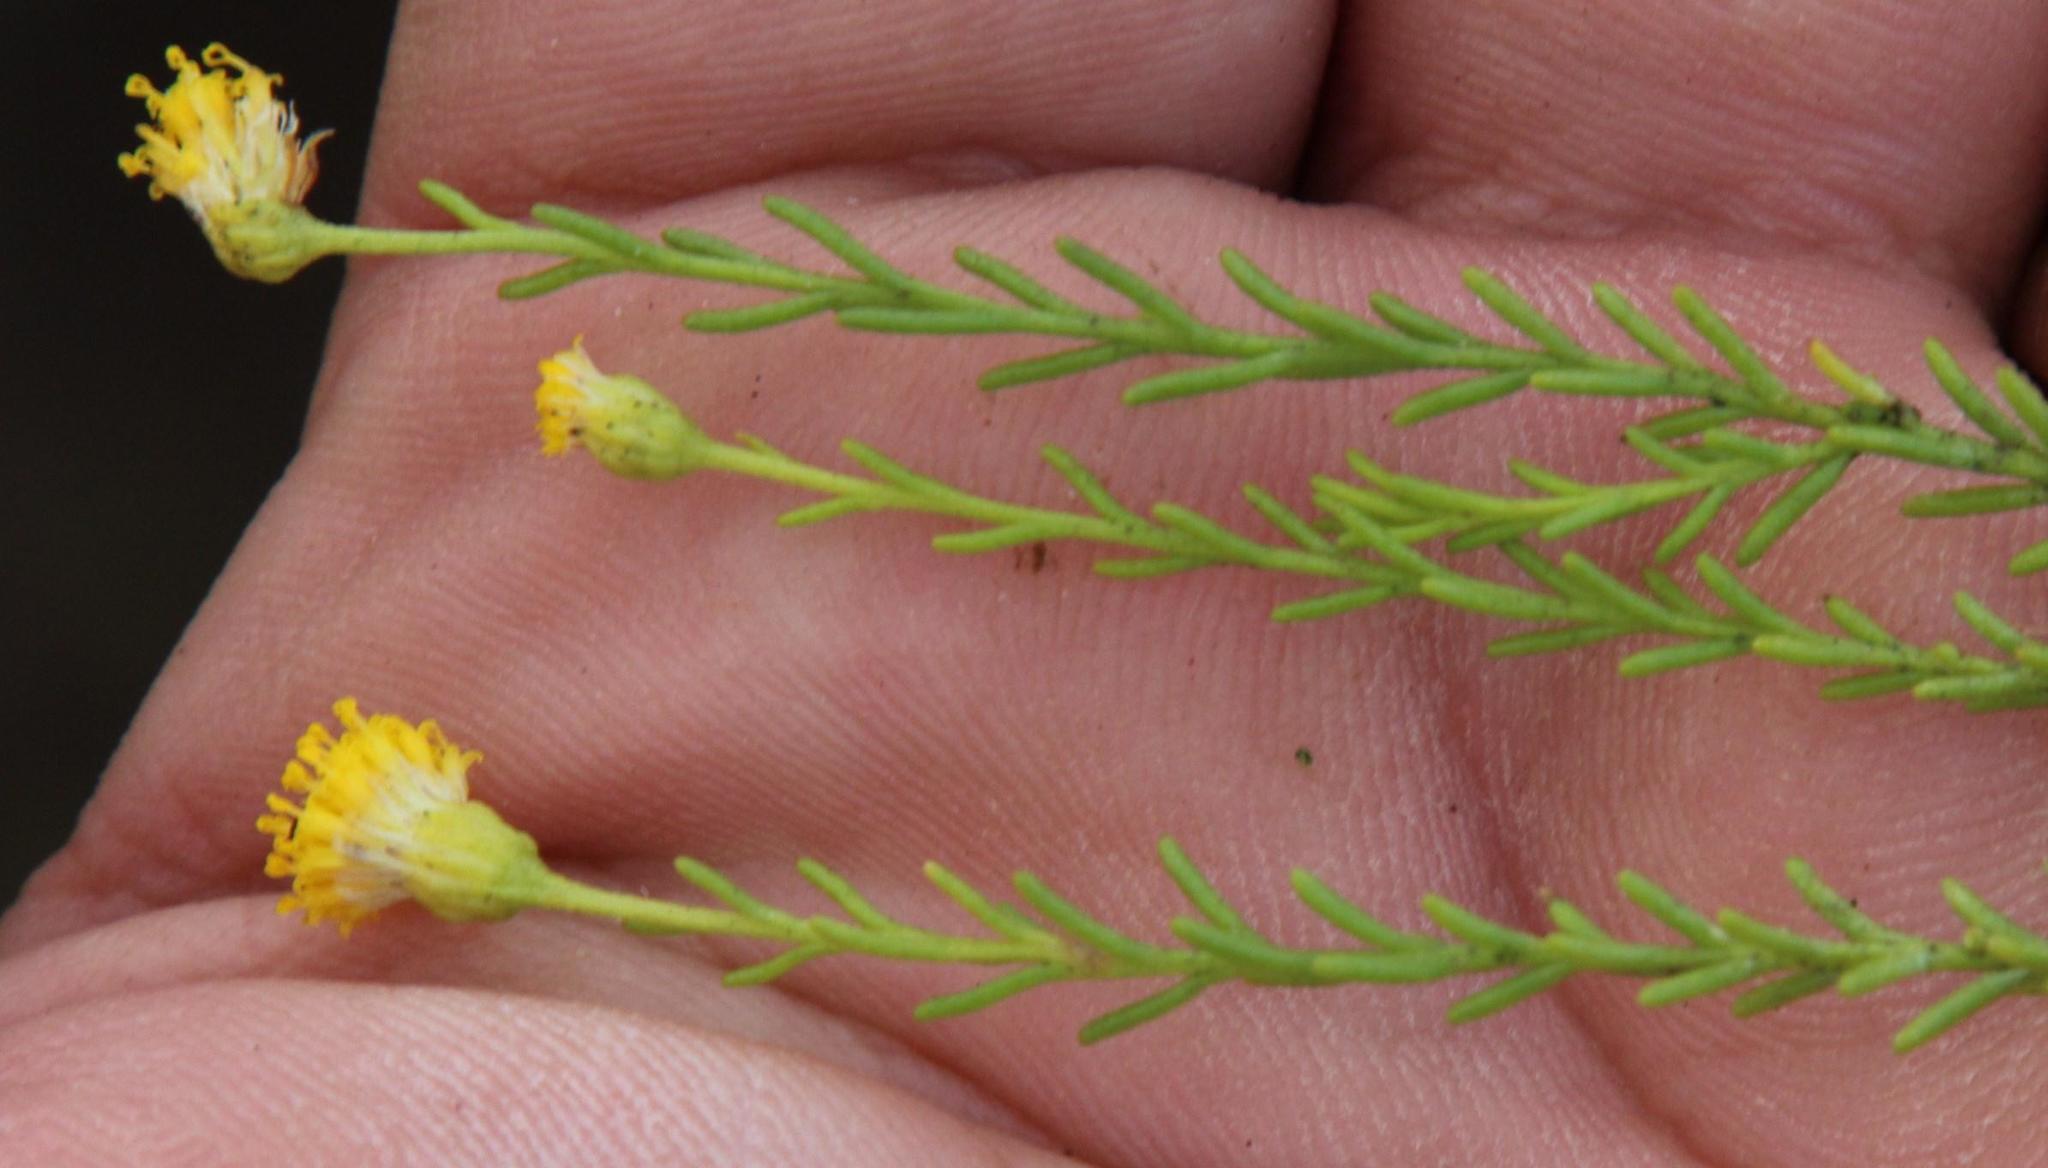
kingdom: Plantae
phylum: Tracheophyta
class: Magnoliopsida
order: Asterales
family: Asteraceae
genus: Chrysocoma
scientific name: Chrysocoma ciliata
